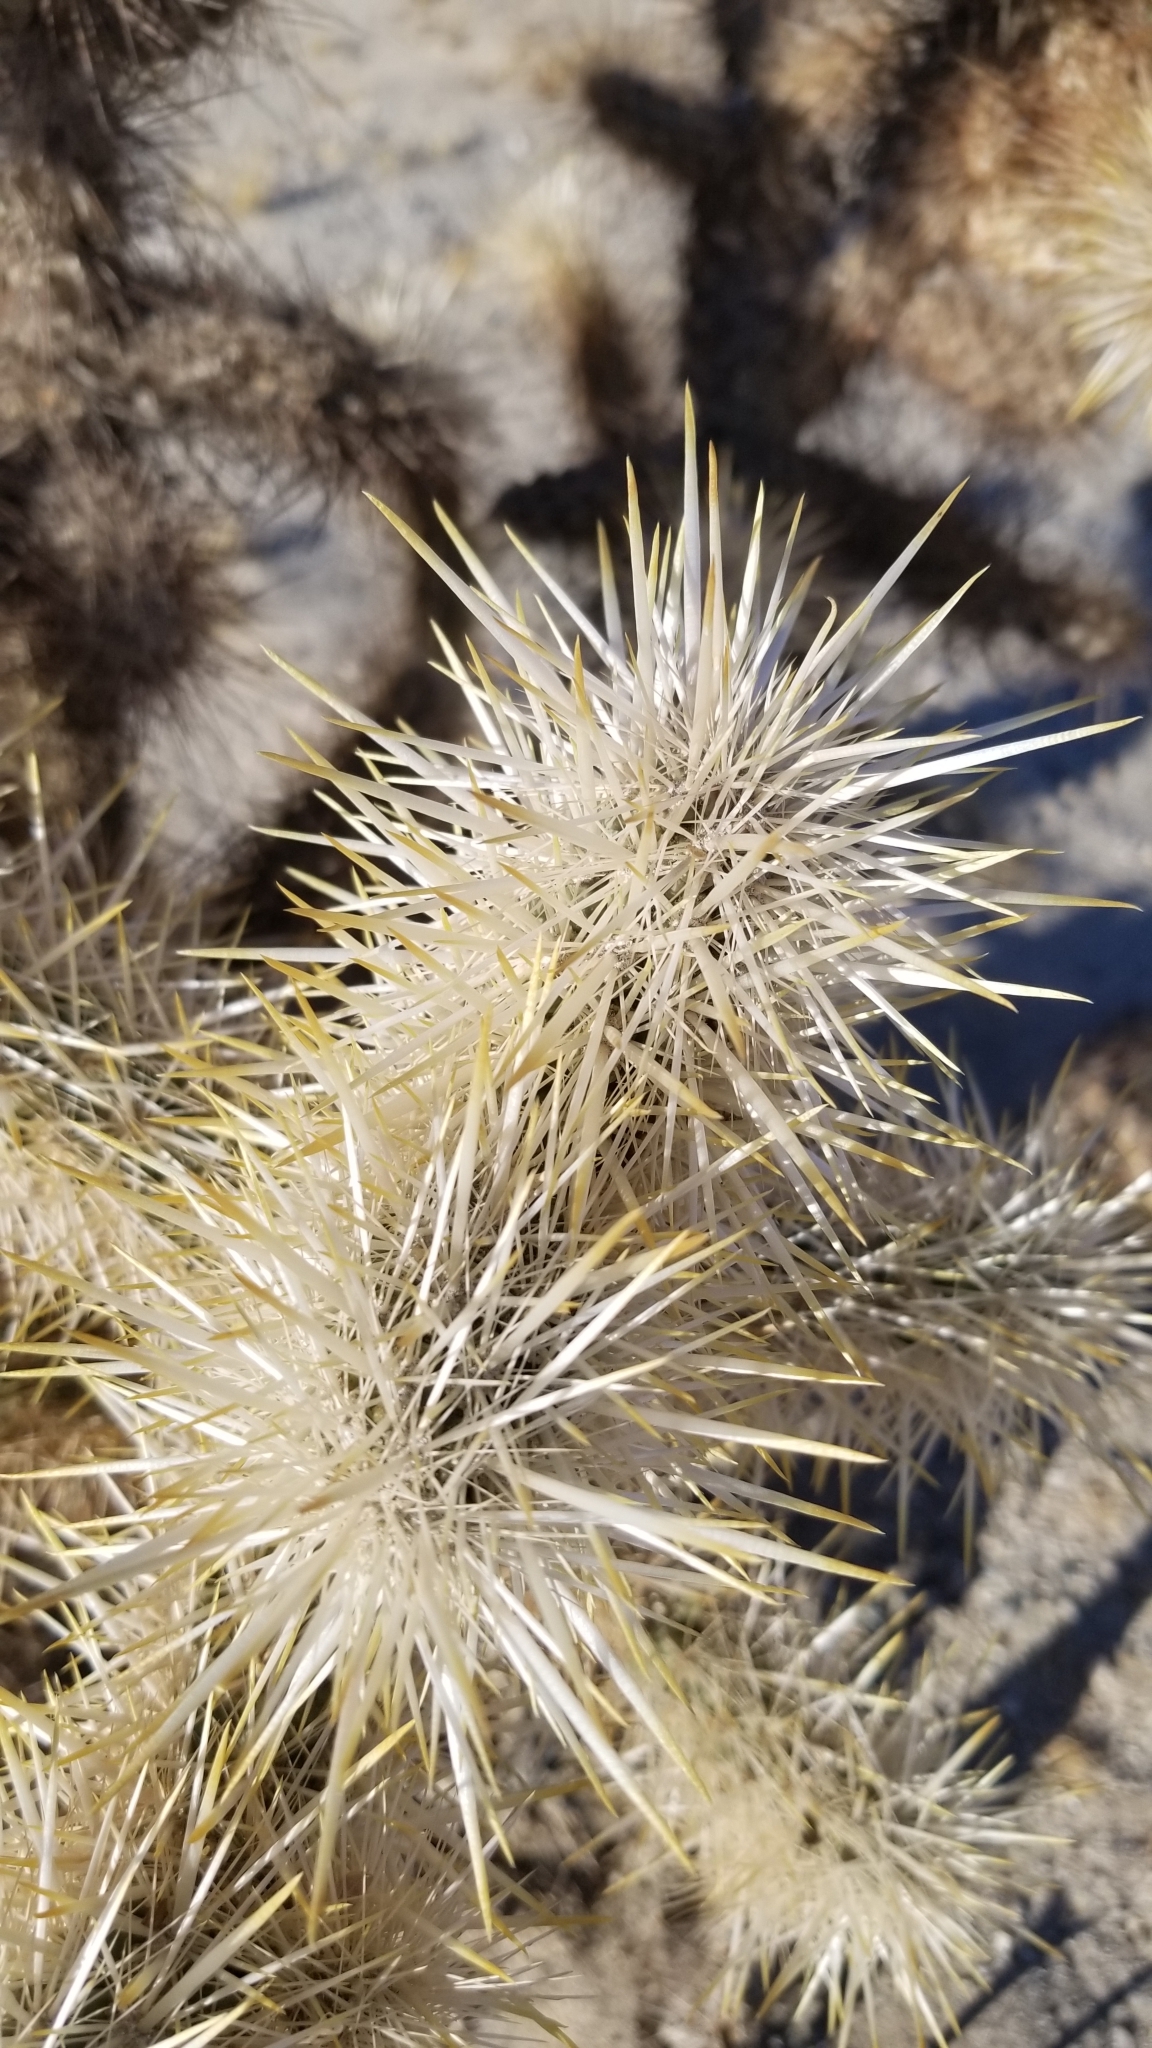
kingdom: Plantae
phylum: Tracheophyta
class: Magnoliopsida
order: Caryophyllales
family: Cactaceae
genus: Cylindropuntia
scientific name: Cylindropuntia echinocarpa
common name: Ground cholla
